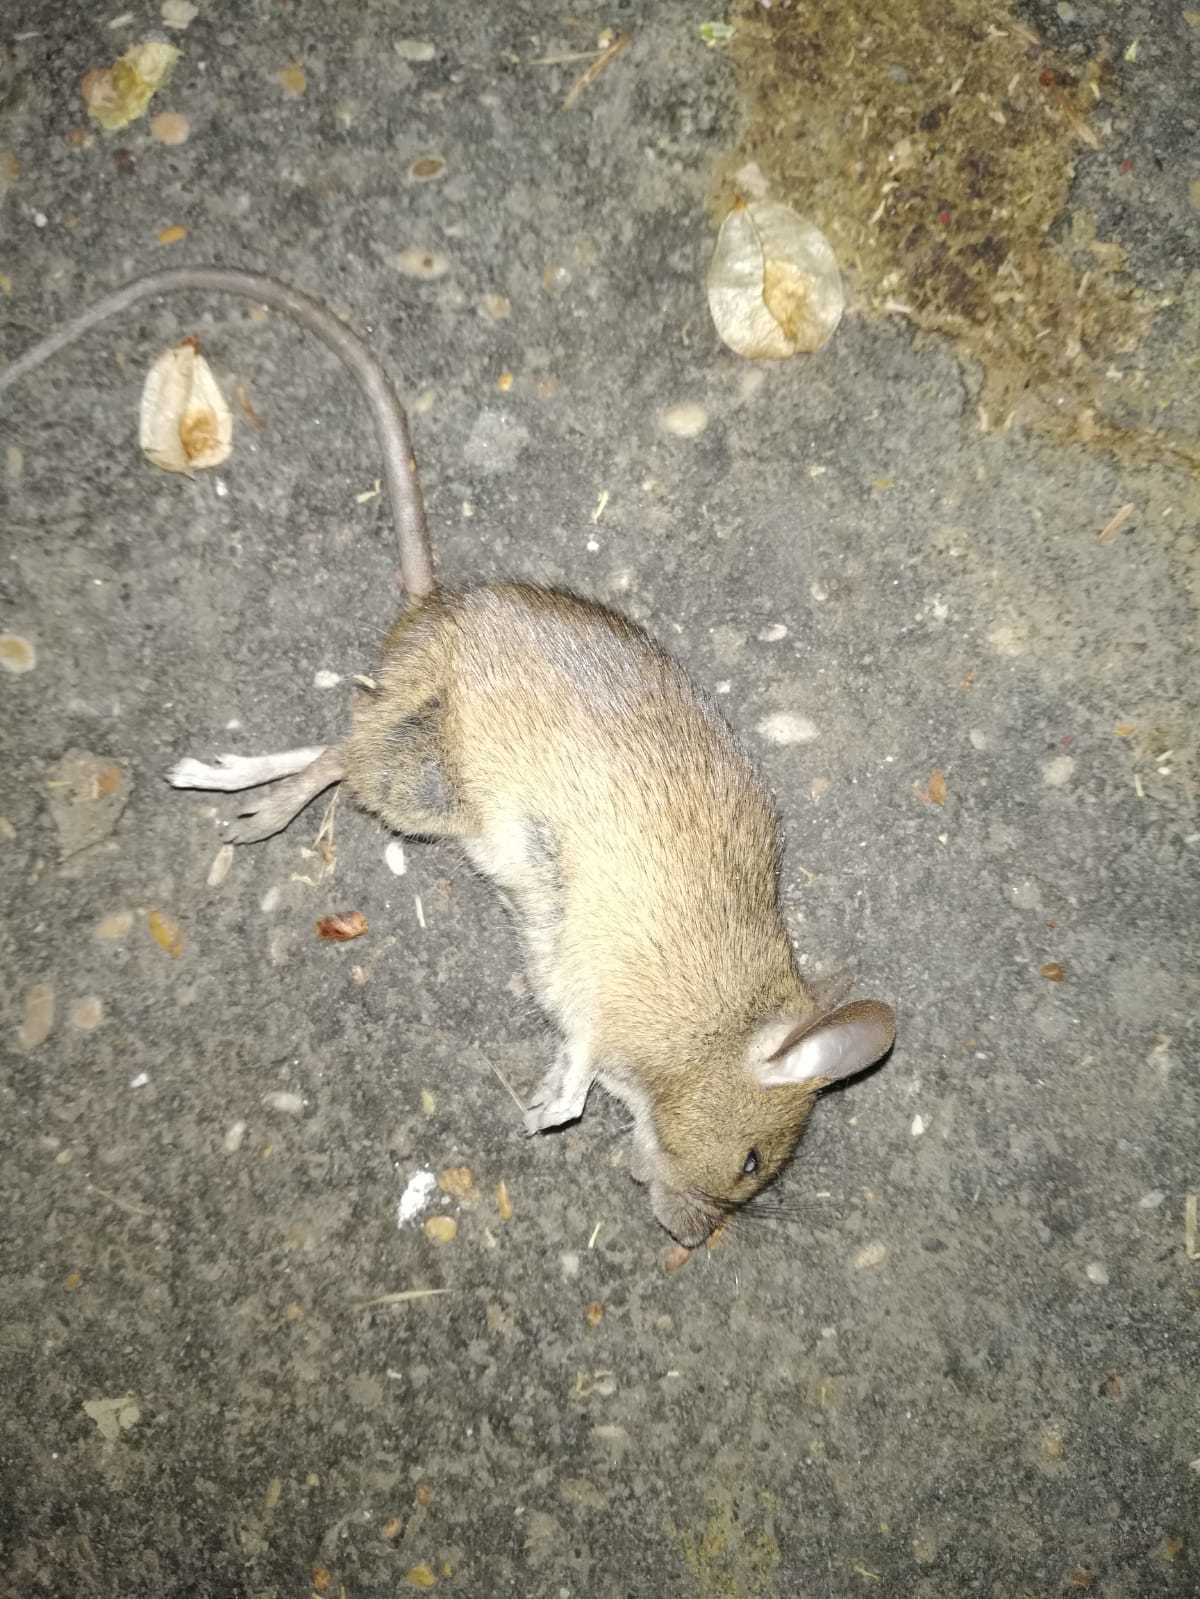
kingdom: Animalia
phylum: Chordata
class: Mammalia
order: Rodentia
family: Muridae
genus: Apodemus
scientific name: Apodemus sylvaticus
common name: Wood mouse
